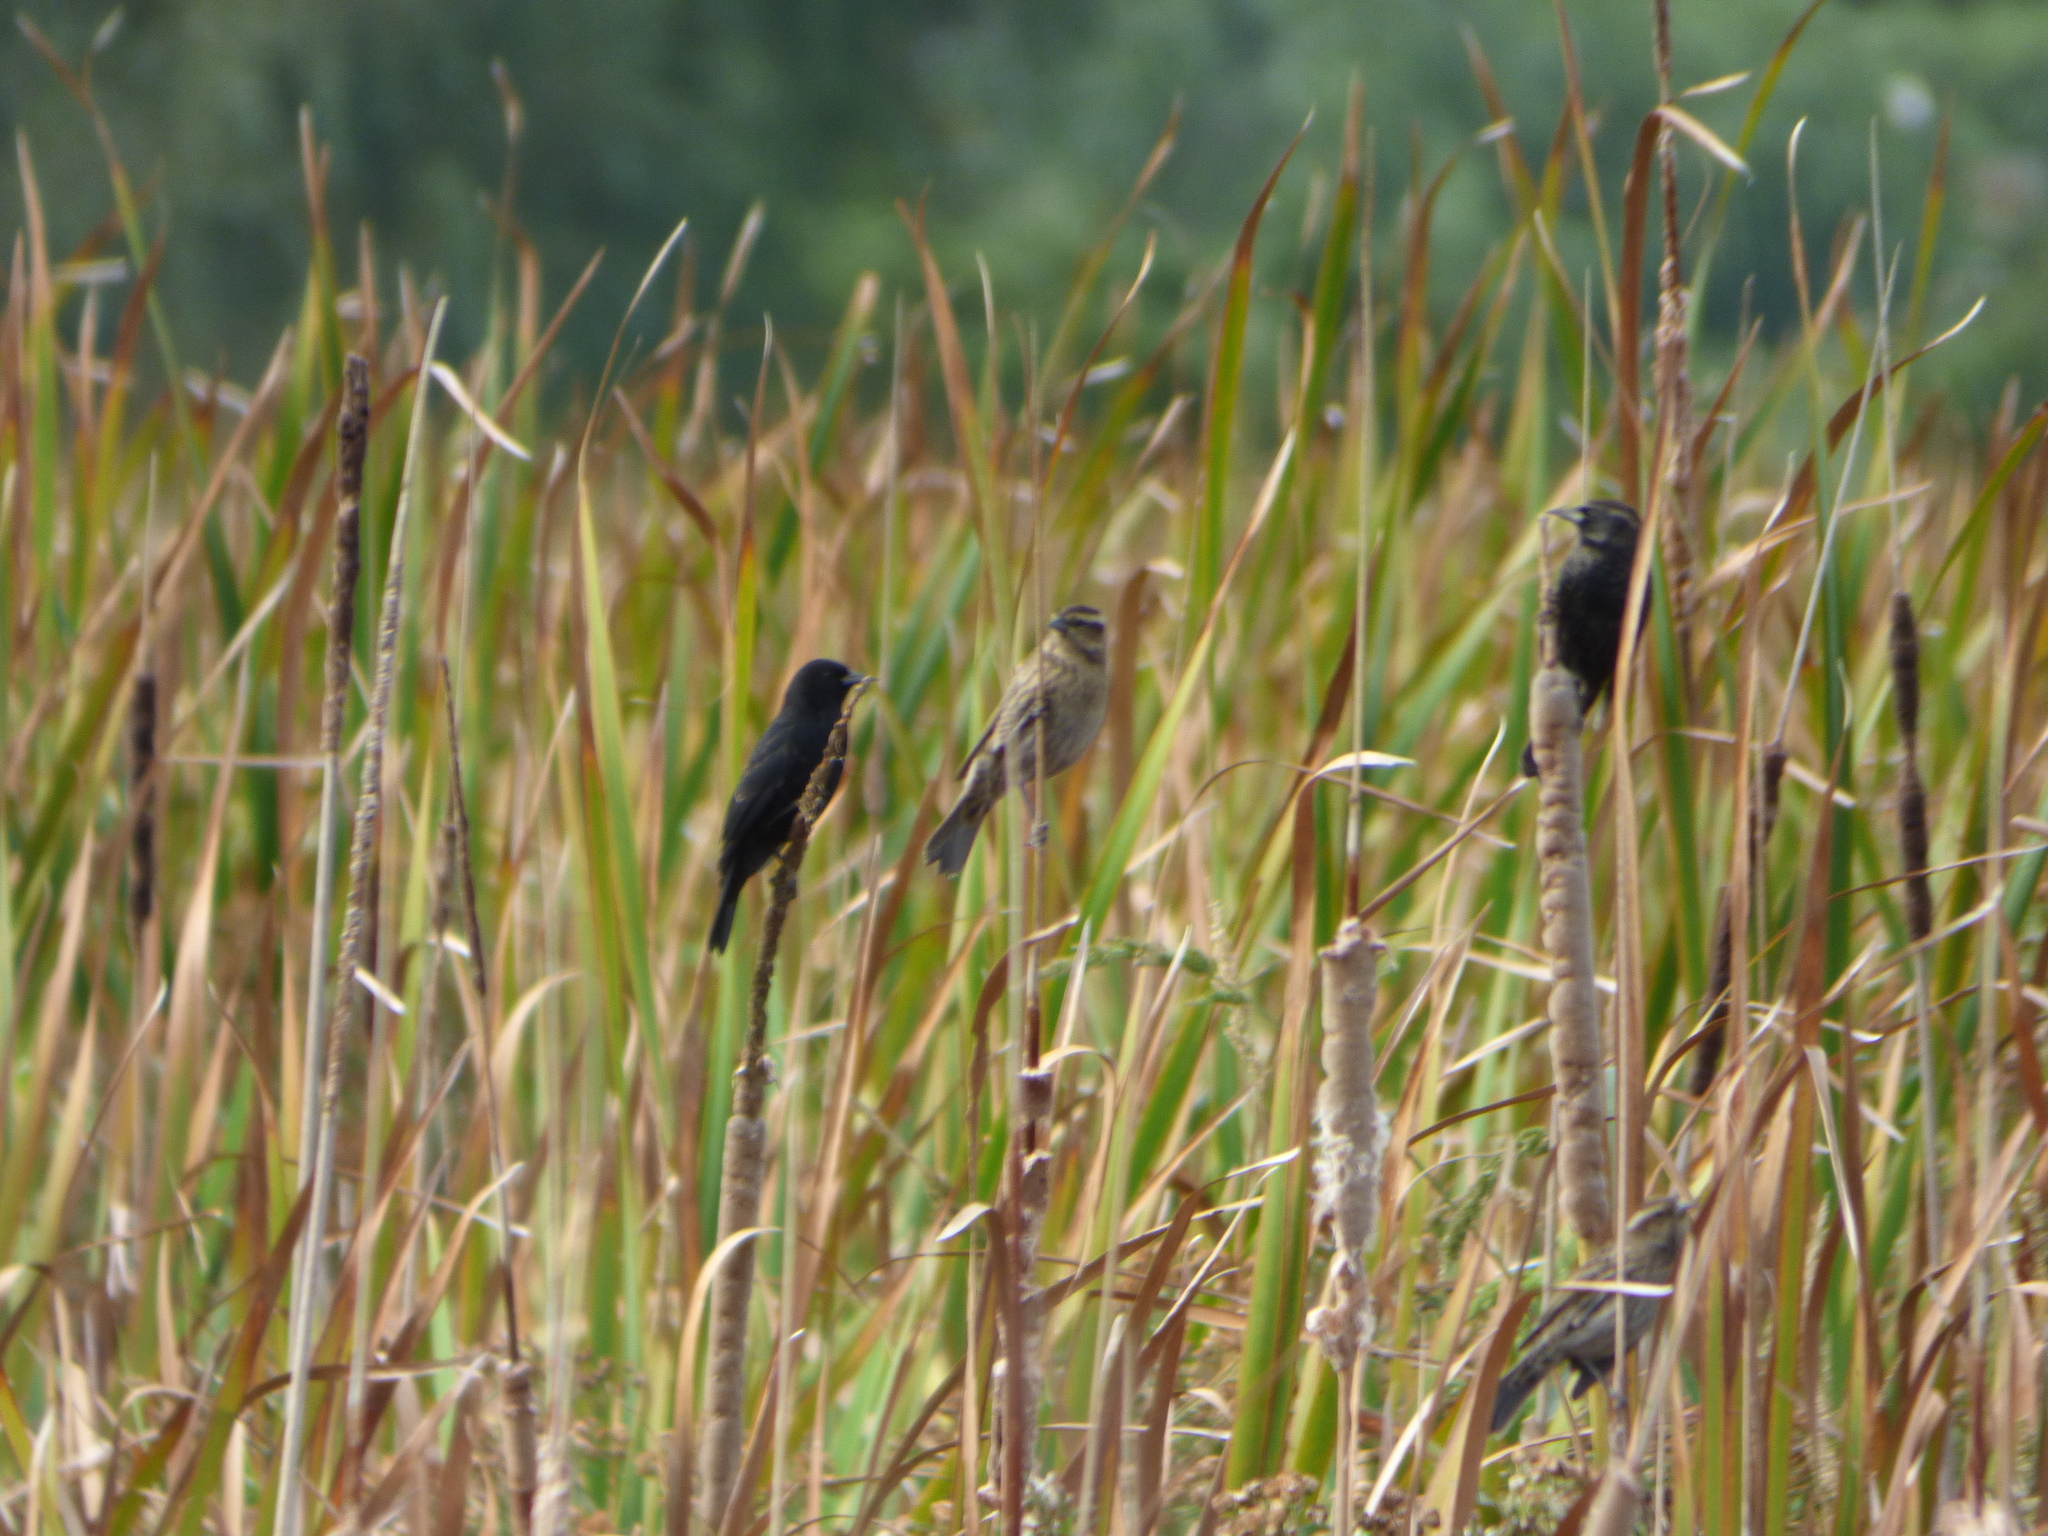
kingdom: Animalia
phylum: Chordata
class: Aves
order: Passeriformes
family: Icteridae
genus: Agelasticus
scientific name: Agelasticus thilius
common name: Yellow-winged blackbird
